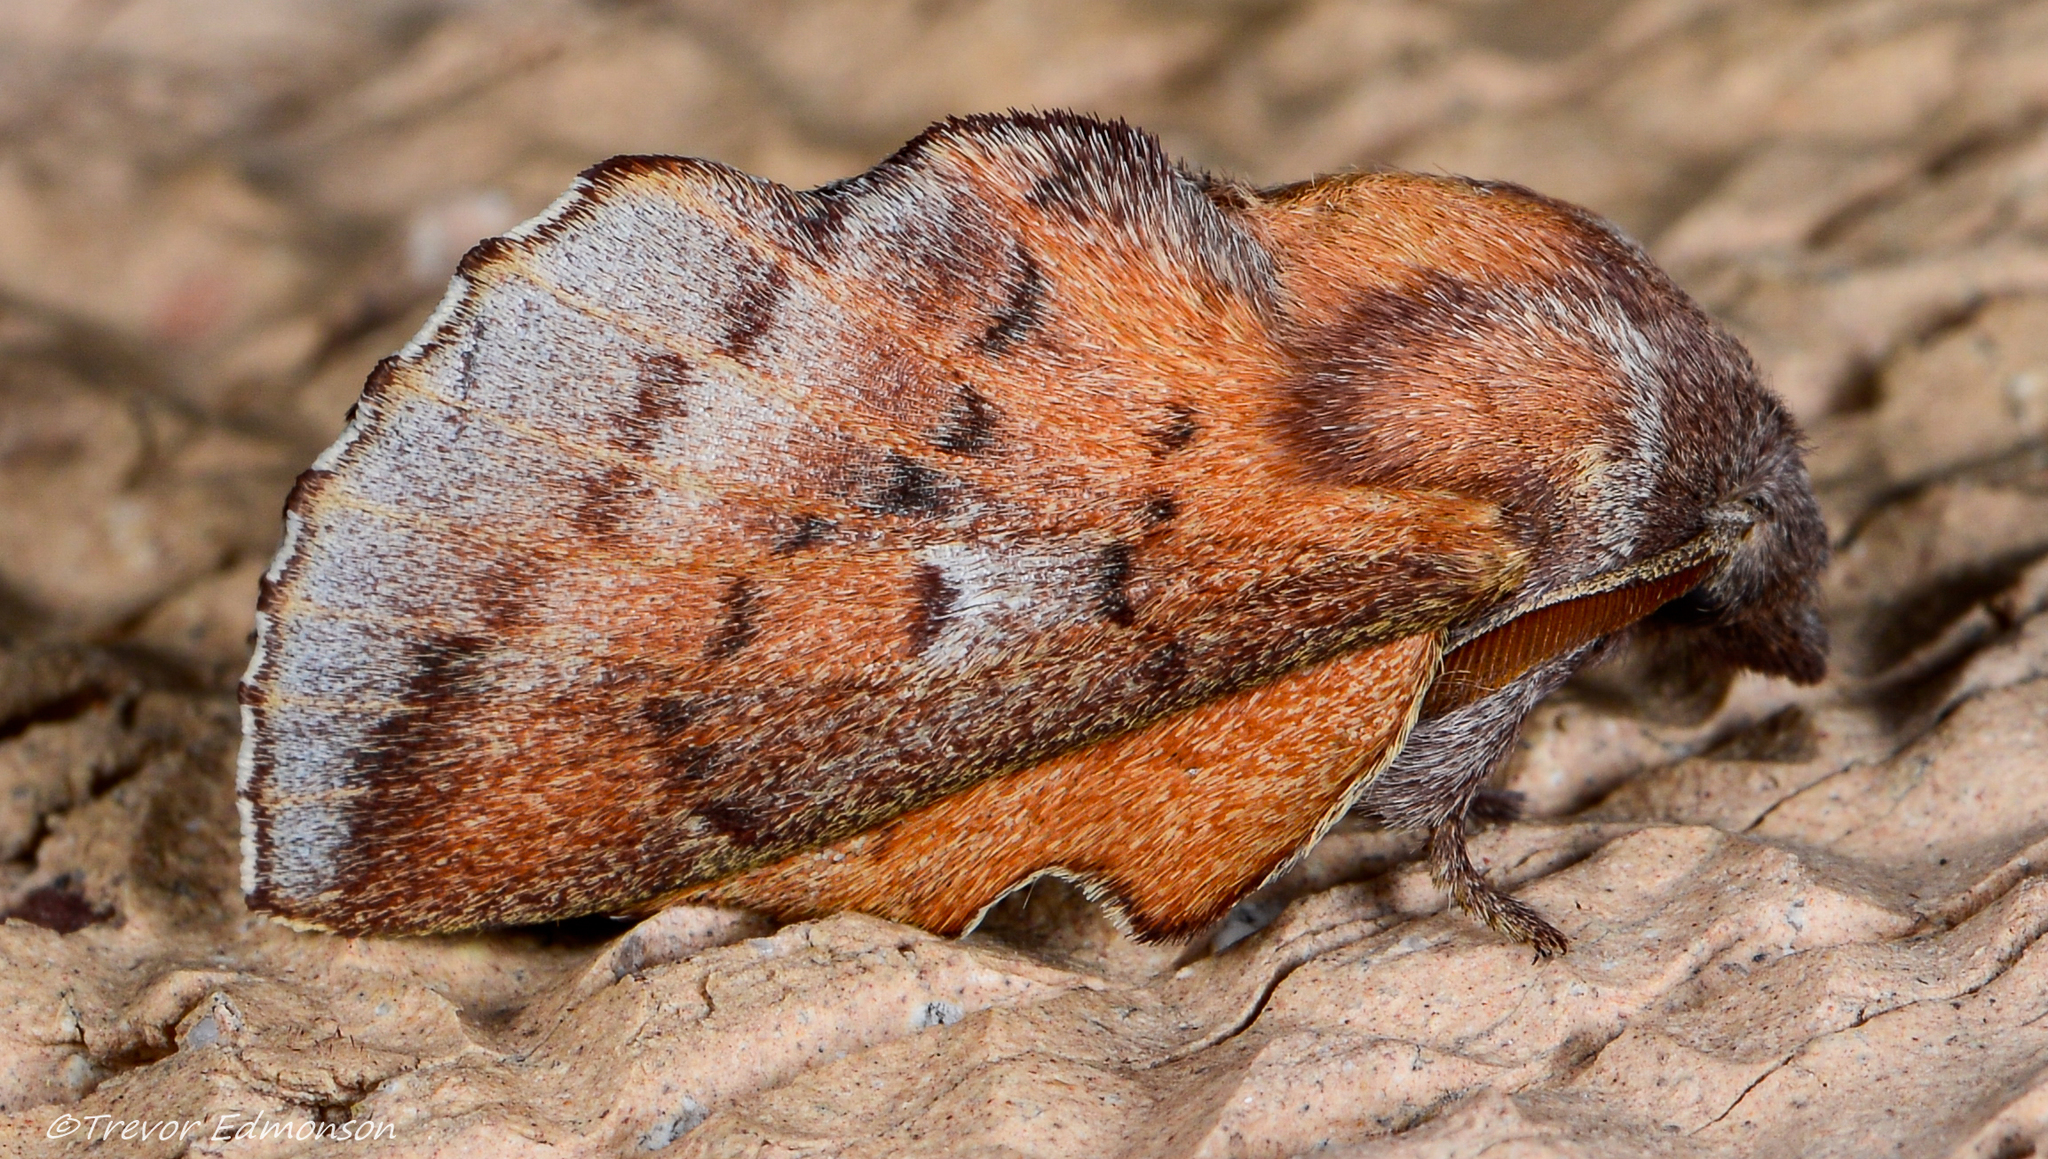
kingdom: Animalia
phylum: Arthropoda
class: Insecta
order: Lepidoptera
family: Lasiocampidae
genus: Phyllodesma
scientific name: Phyllodesma americana
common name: American lappet moth
